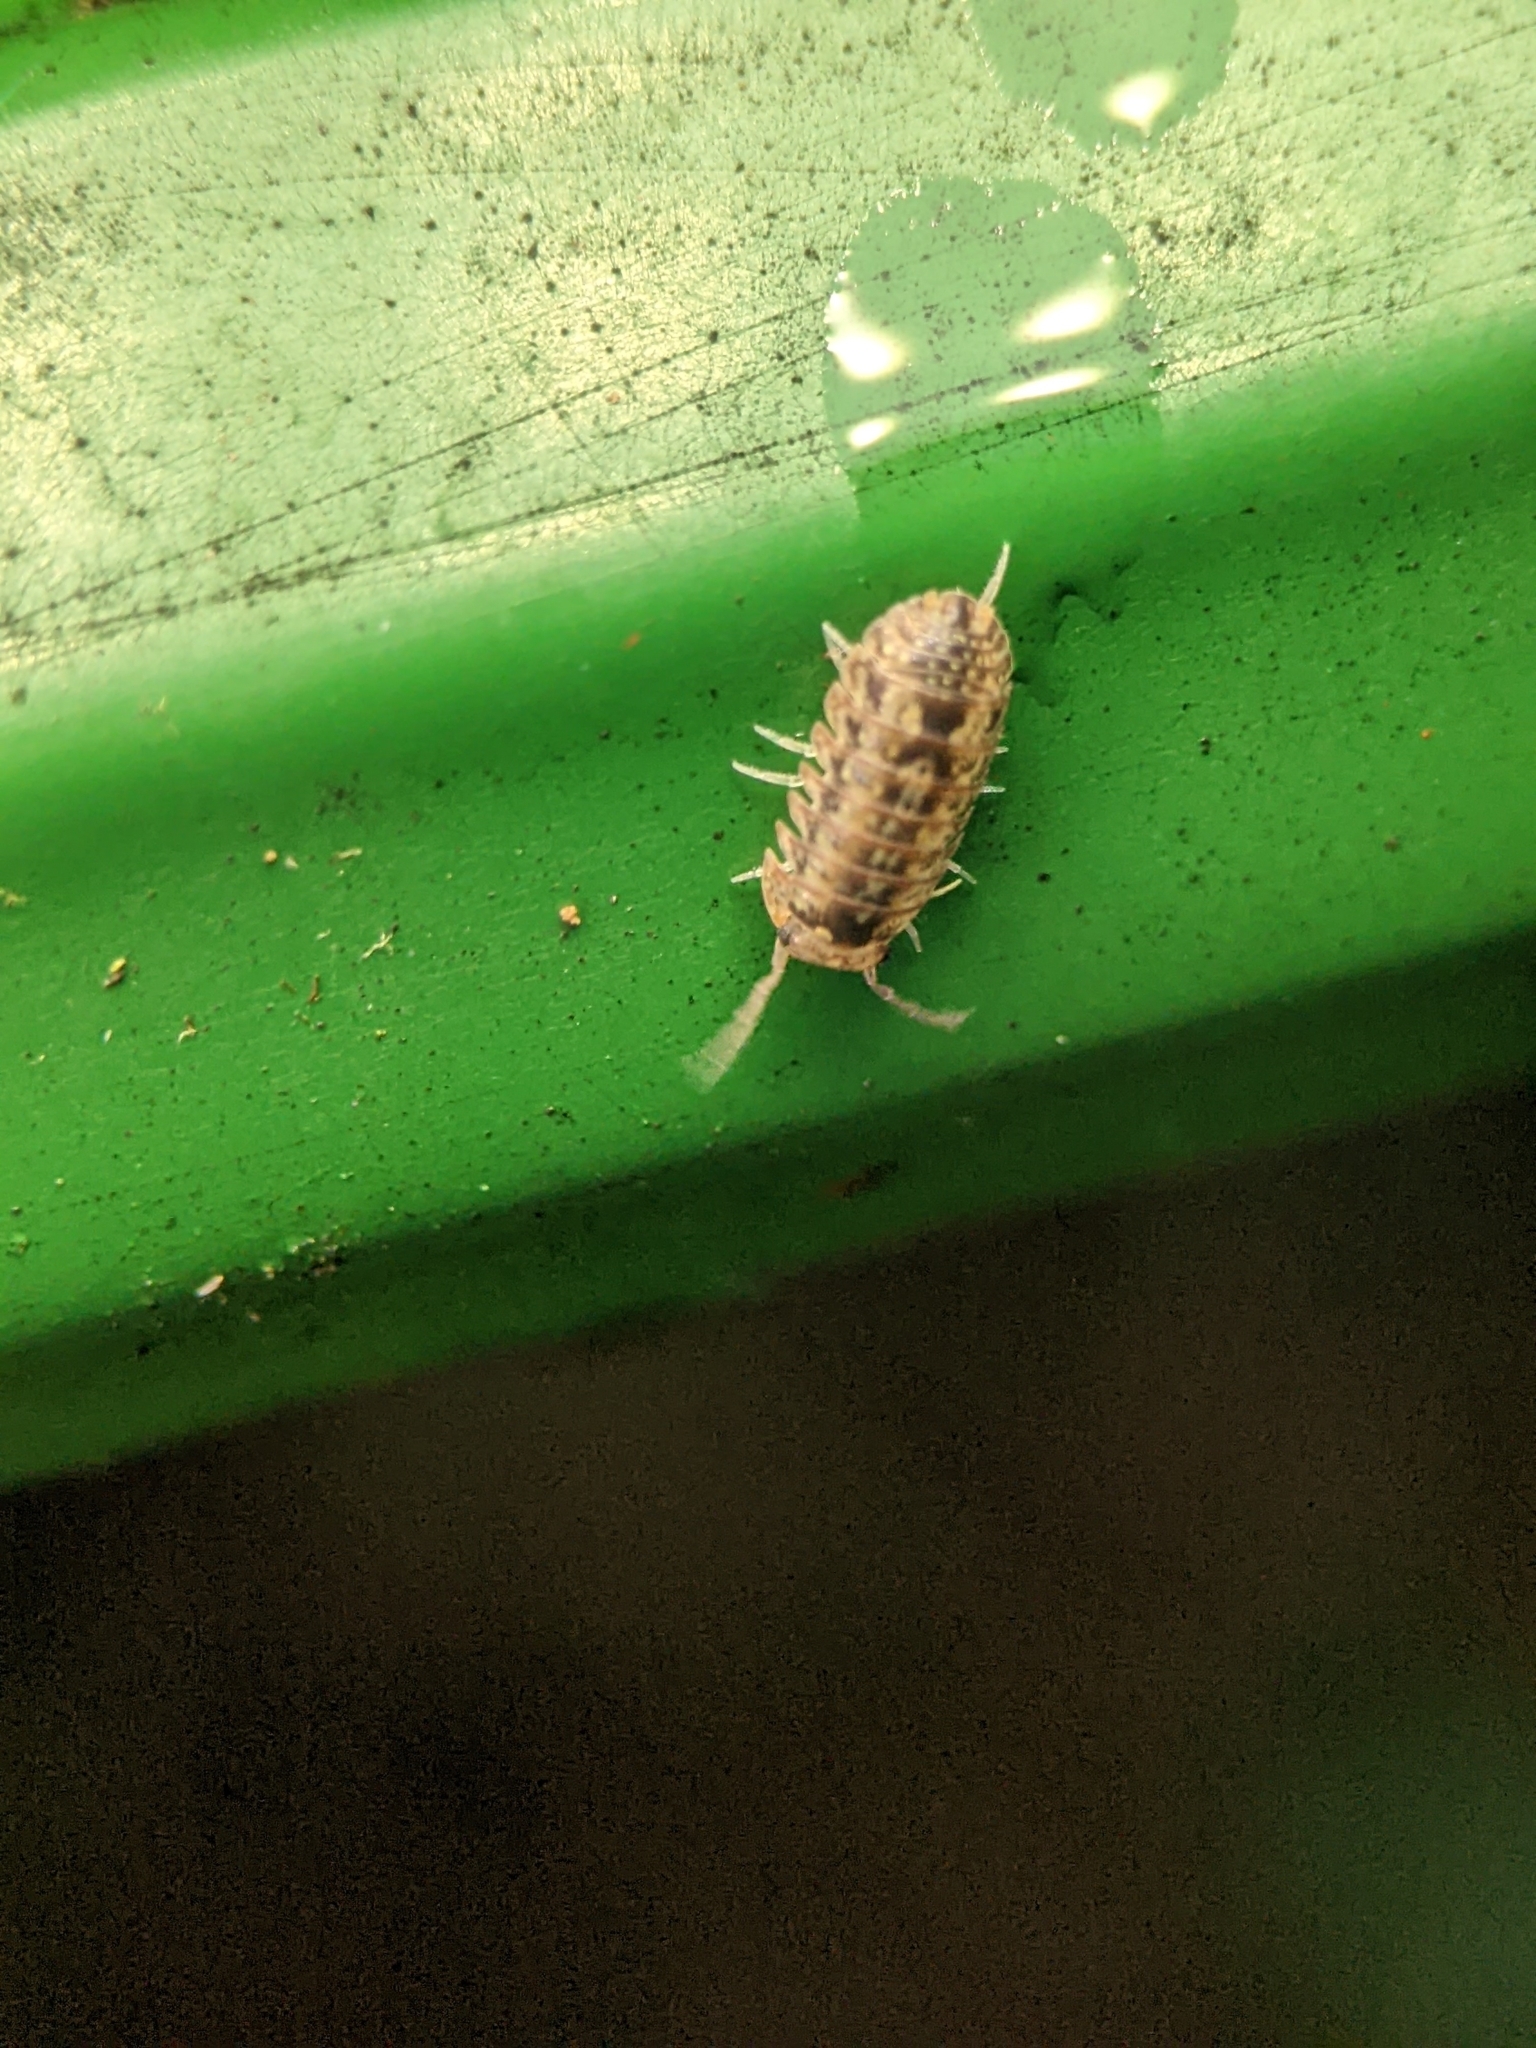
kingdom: Animalia
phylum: Arthropoda
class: Malacostraca
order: Isopoda
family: Armadillidae
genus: Armadillo
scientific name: Armadillo intermixtus
